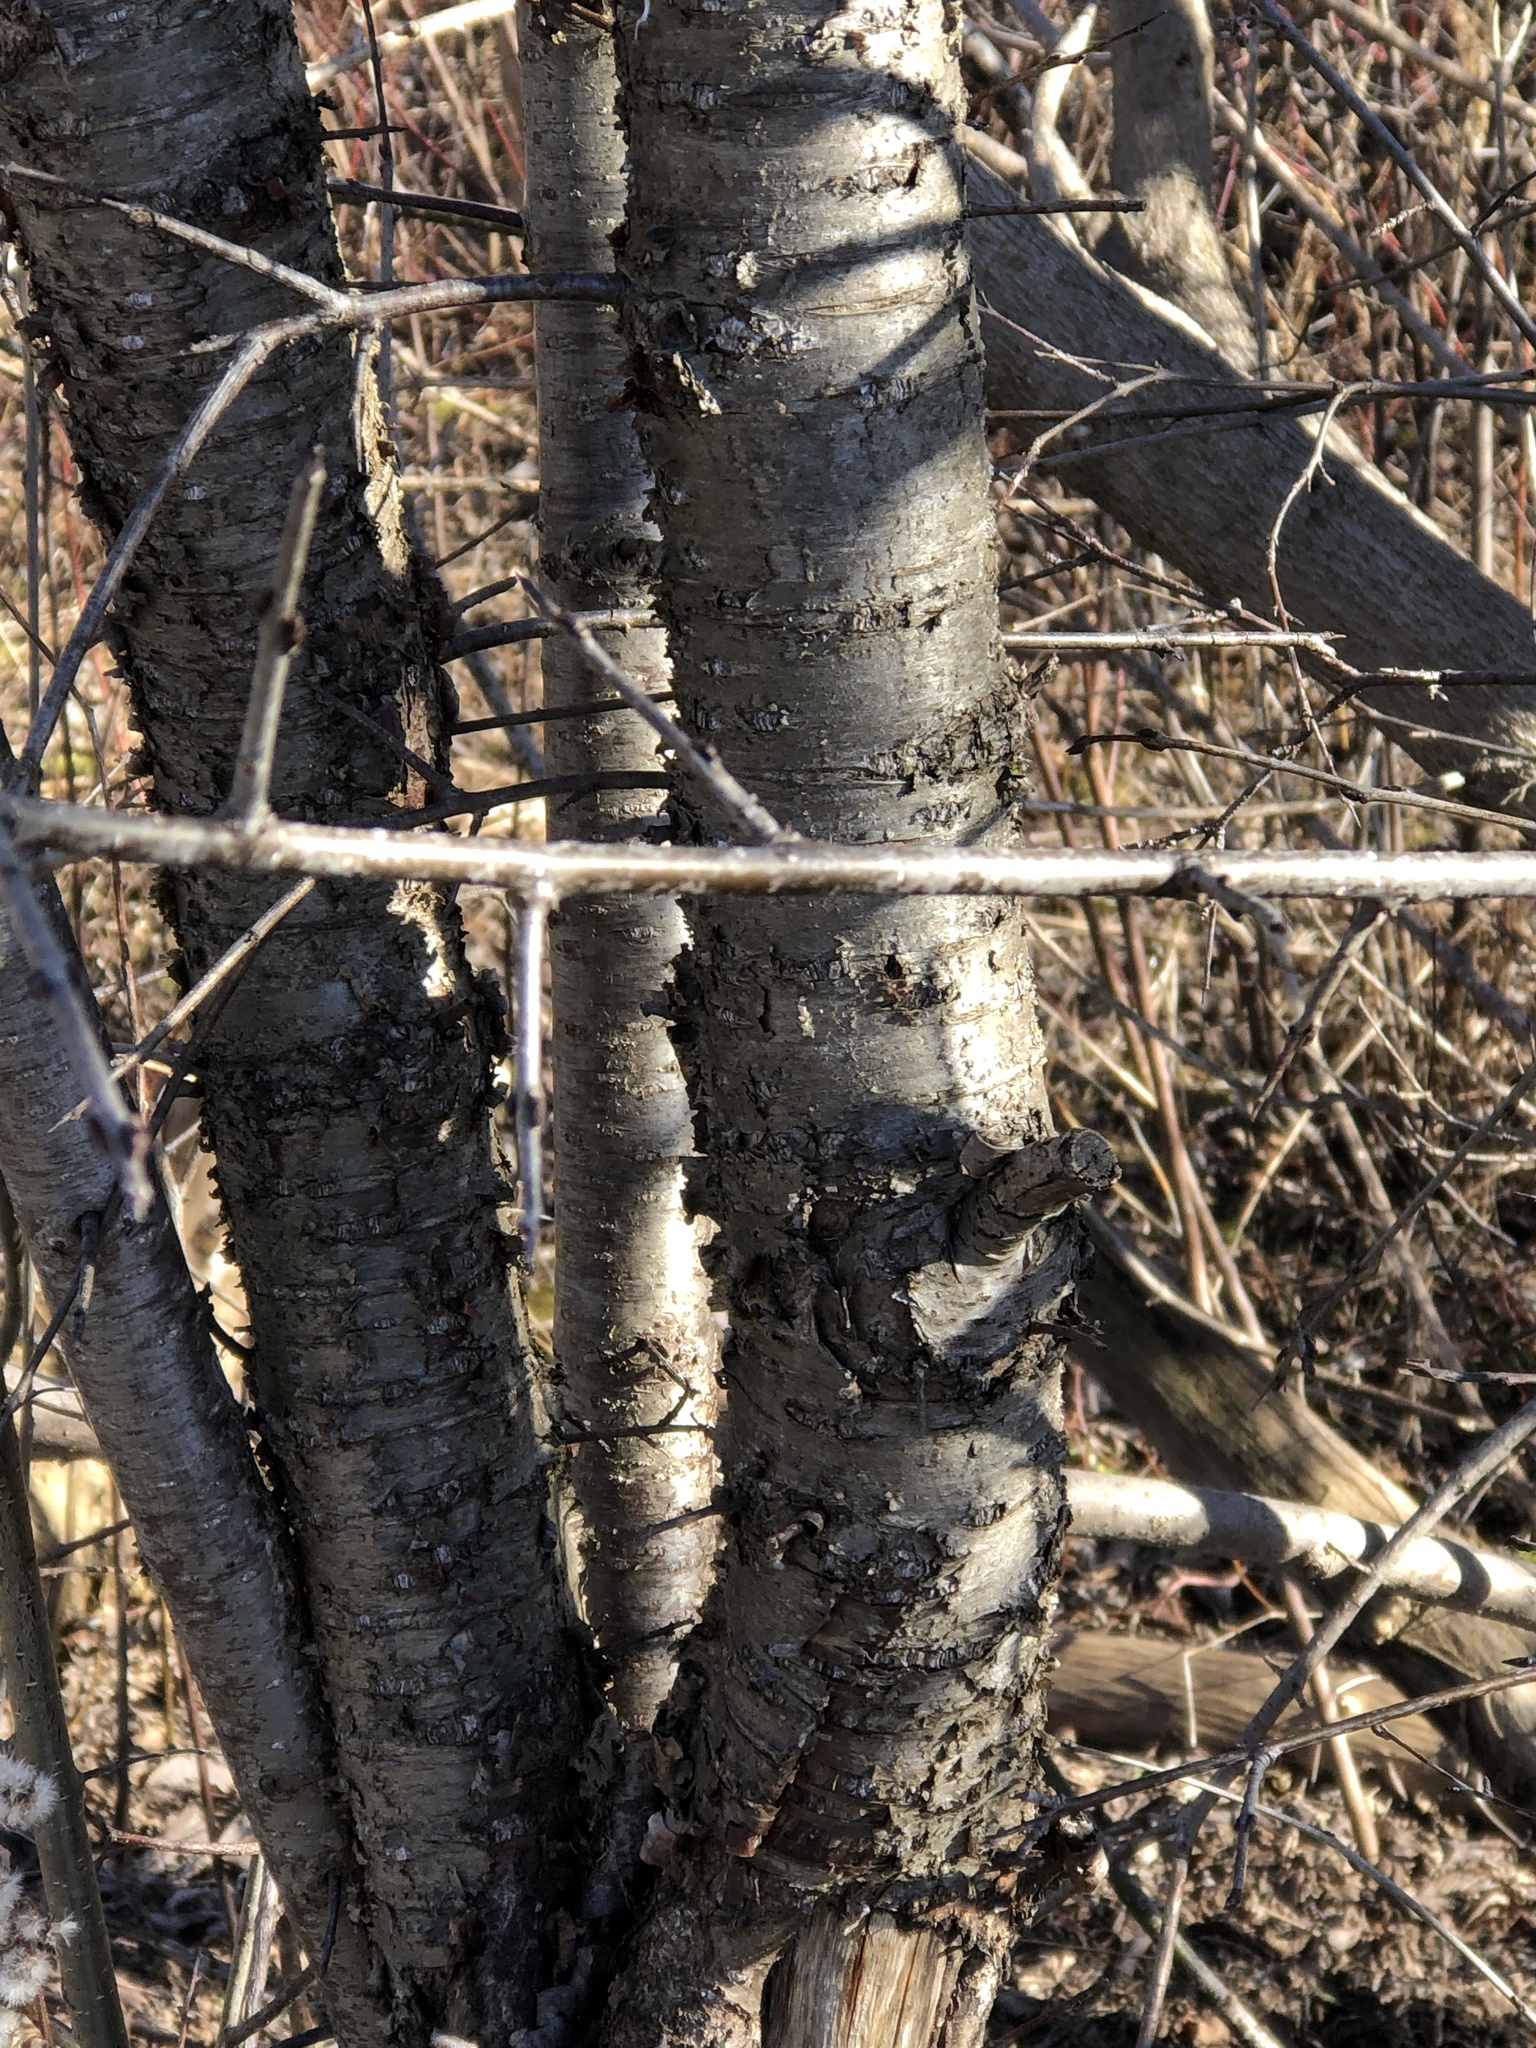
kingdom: Plantae
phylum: Tracheophyta
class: Magnoliopsida
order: Rosales
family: Rhamnaceae
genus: Rhamnus
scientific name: Rhamnus cathartica
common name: Common buckthorn
